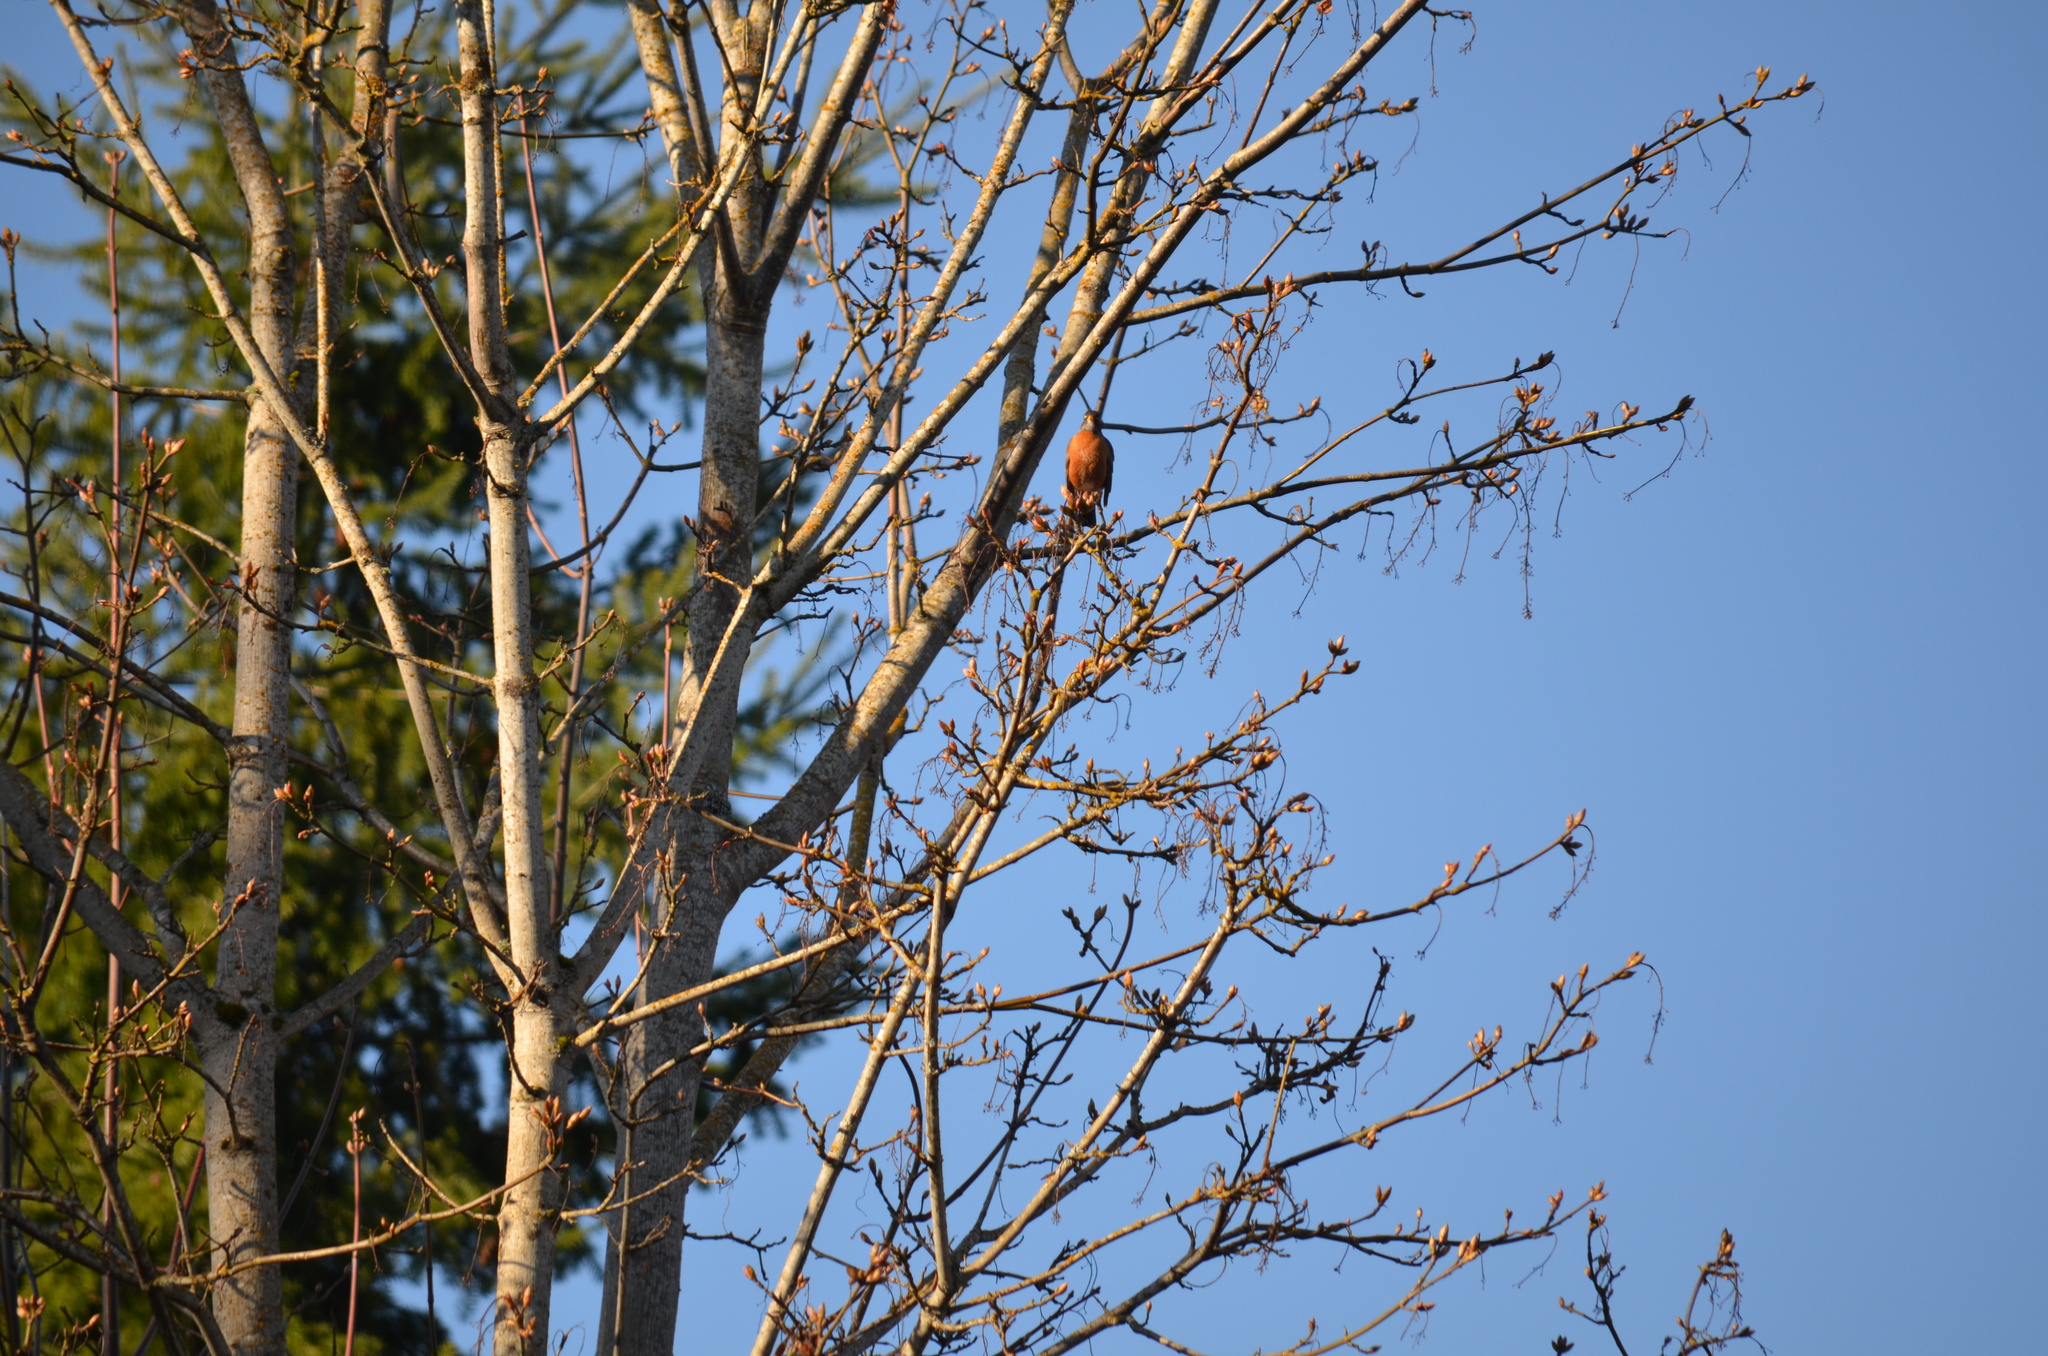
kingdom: Animalia
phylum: Chordata
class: Aves
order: Passeriformes
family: Turdidae
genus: Turdus
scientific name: Turdus migratorius
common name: American robin
